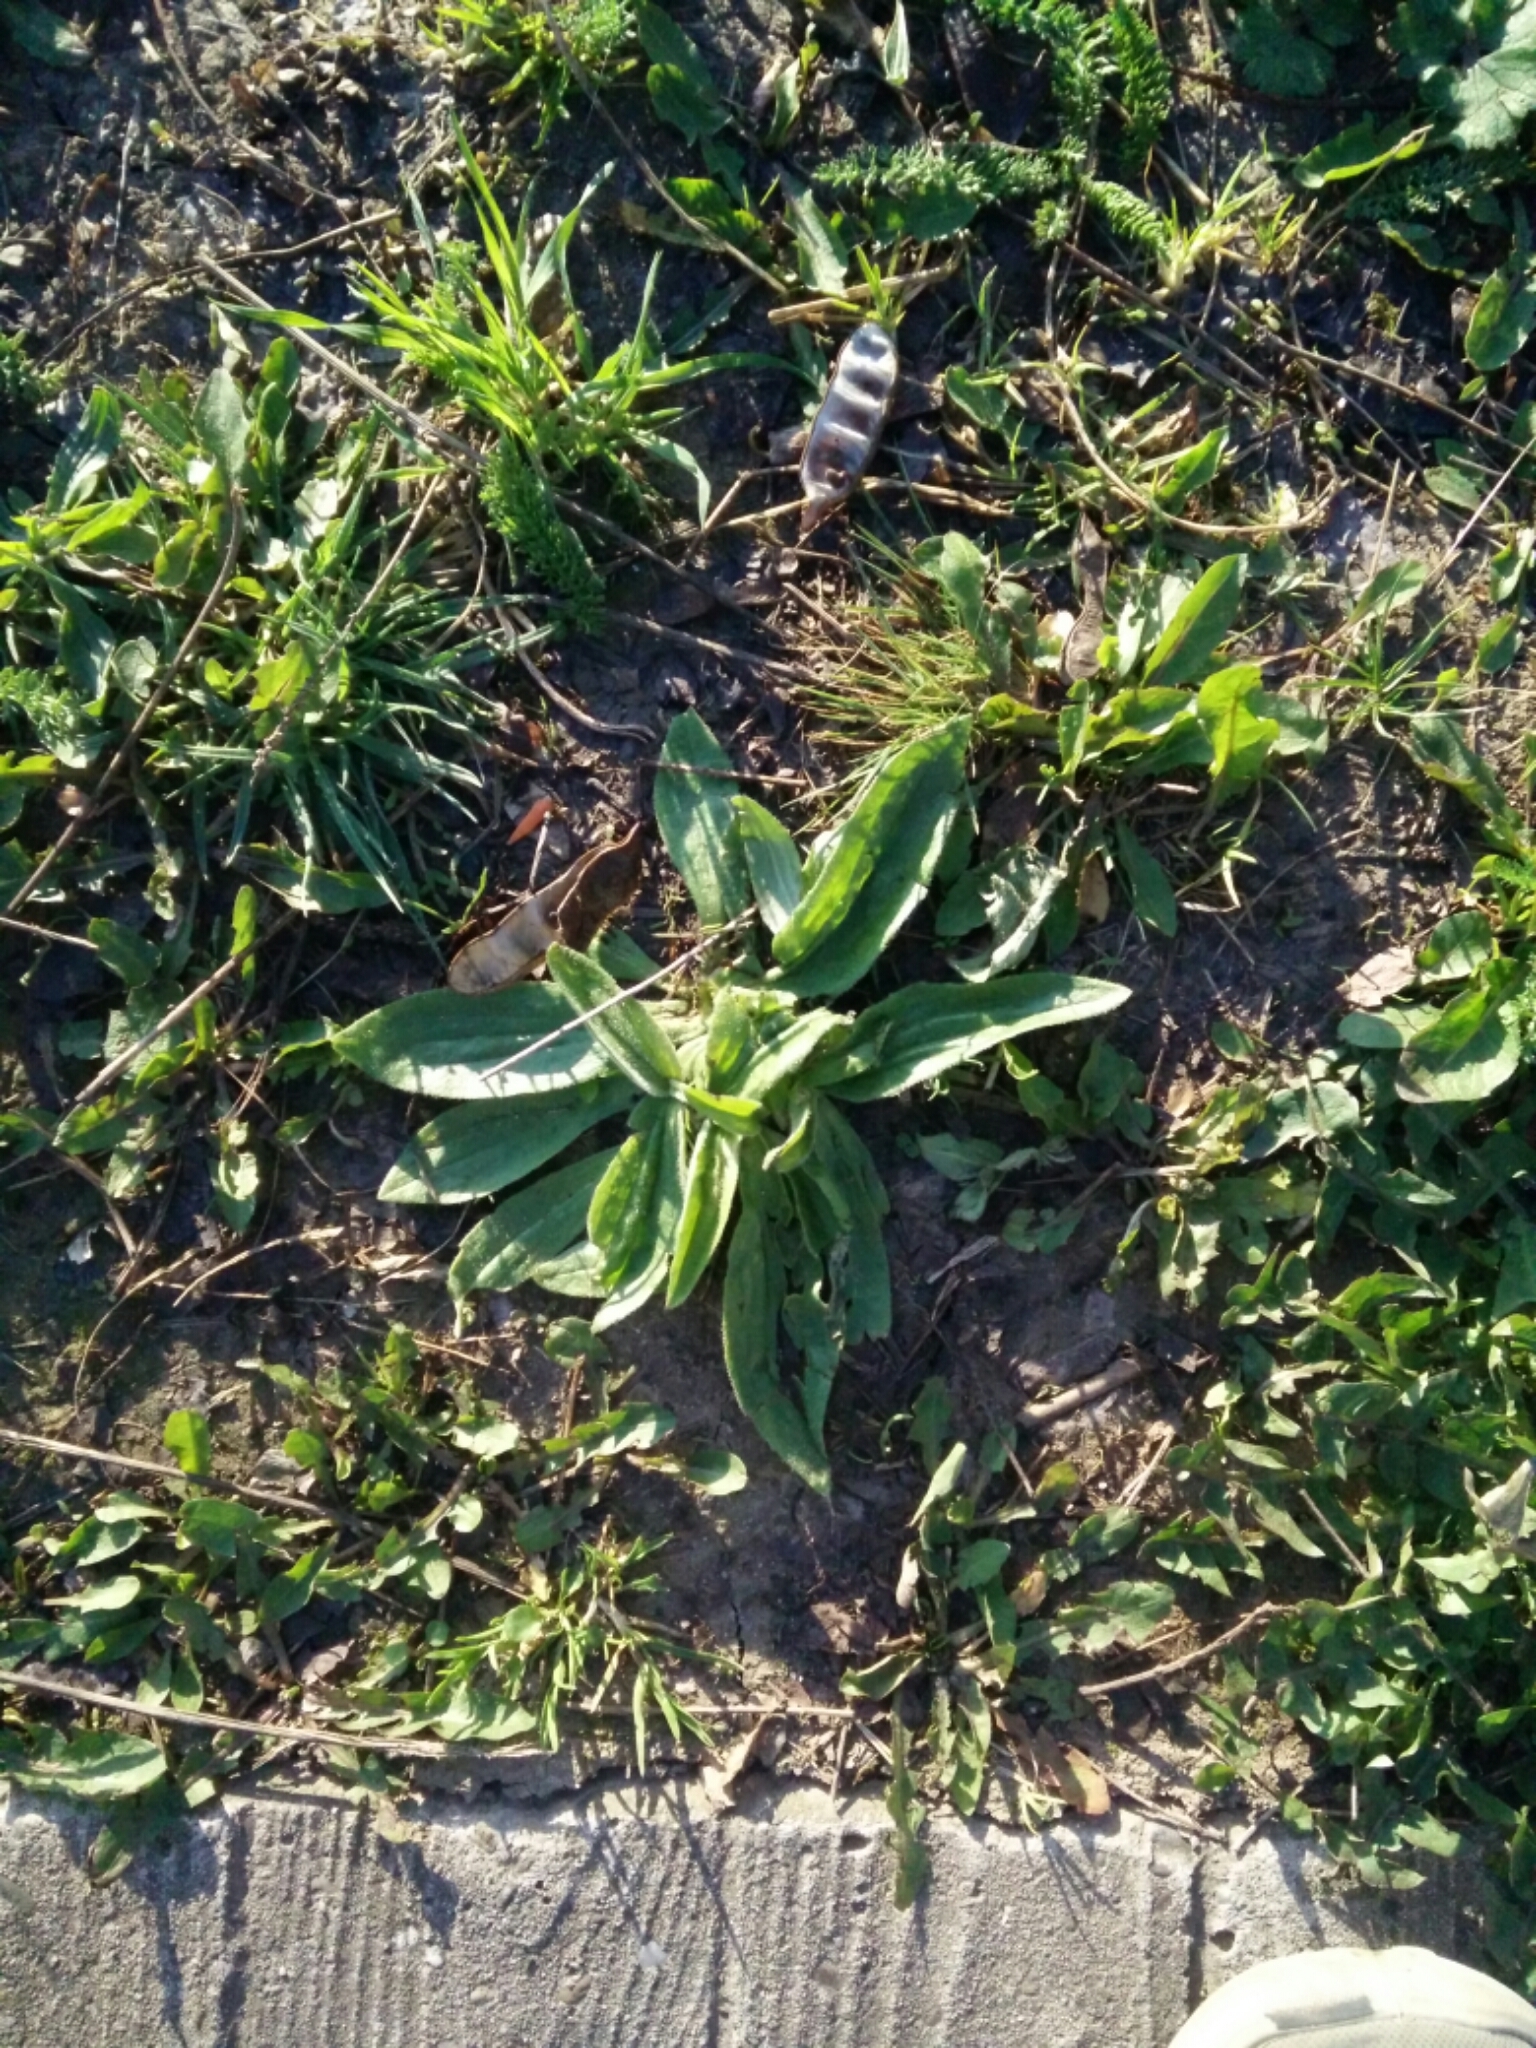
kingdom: Plantae
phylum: Tracheophyta
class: Magnoliopsida
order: Lamiales
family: Plantaginaceae
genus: Plantago
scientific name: Plantago lanceolata
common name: Ribwort plantain
